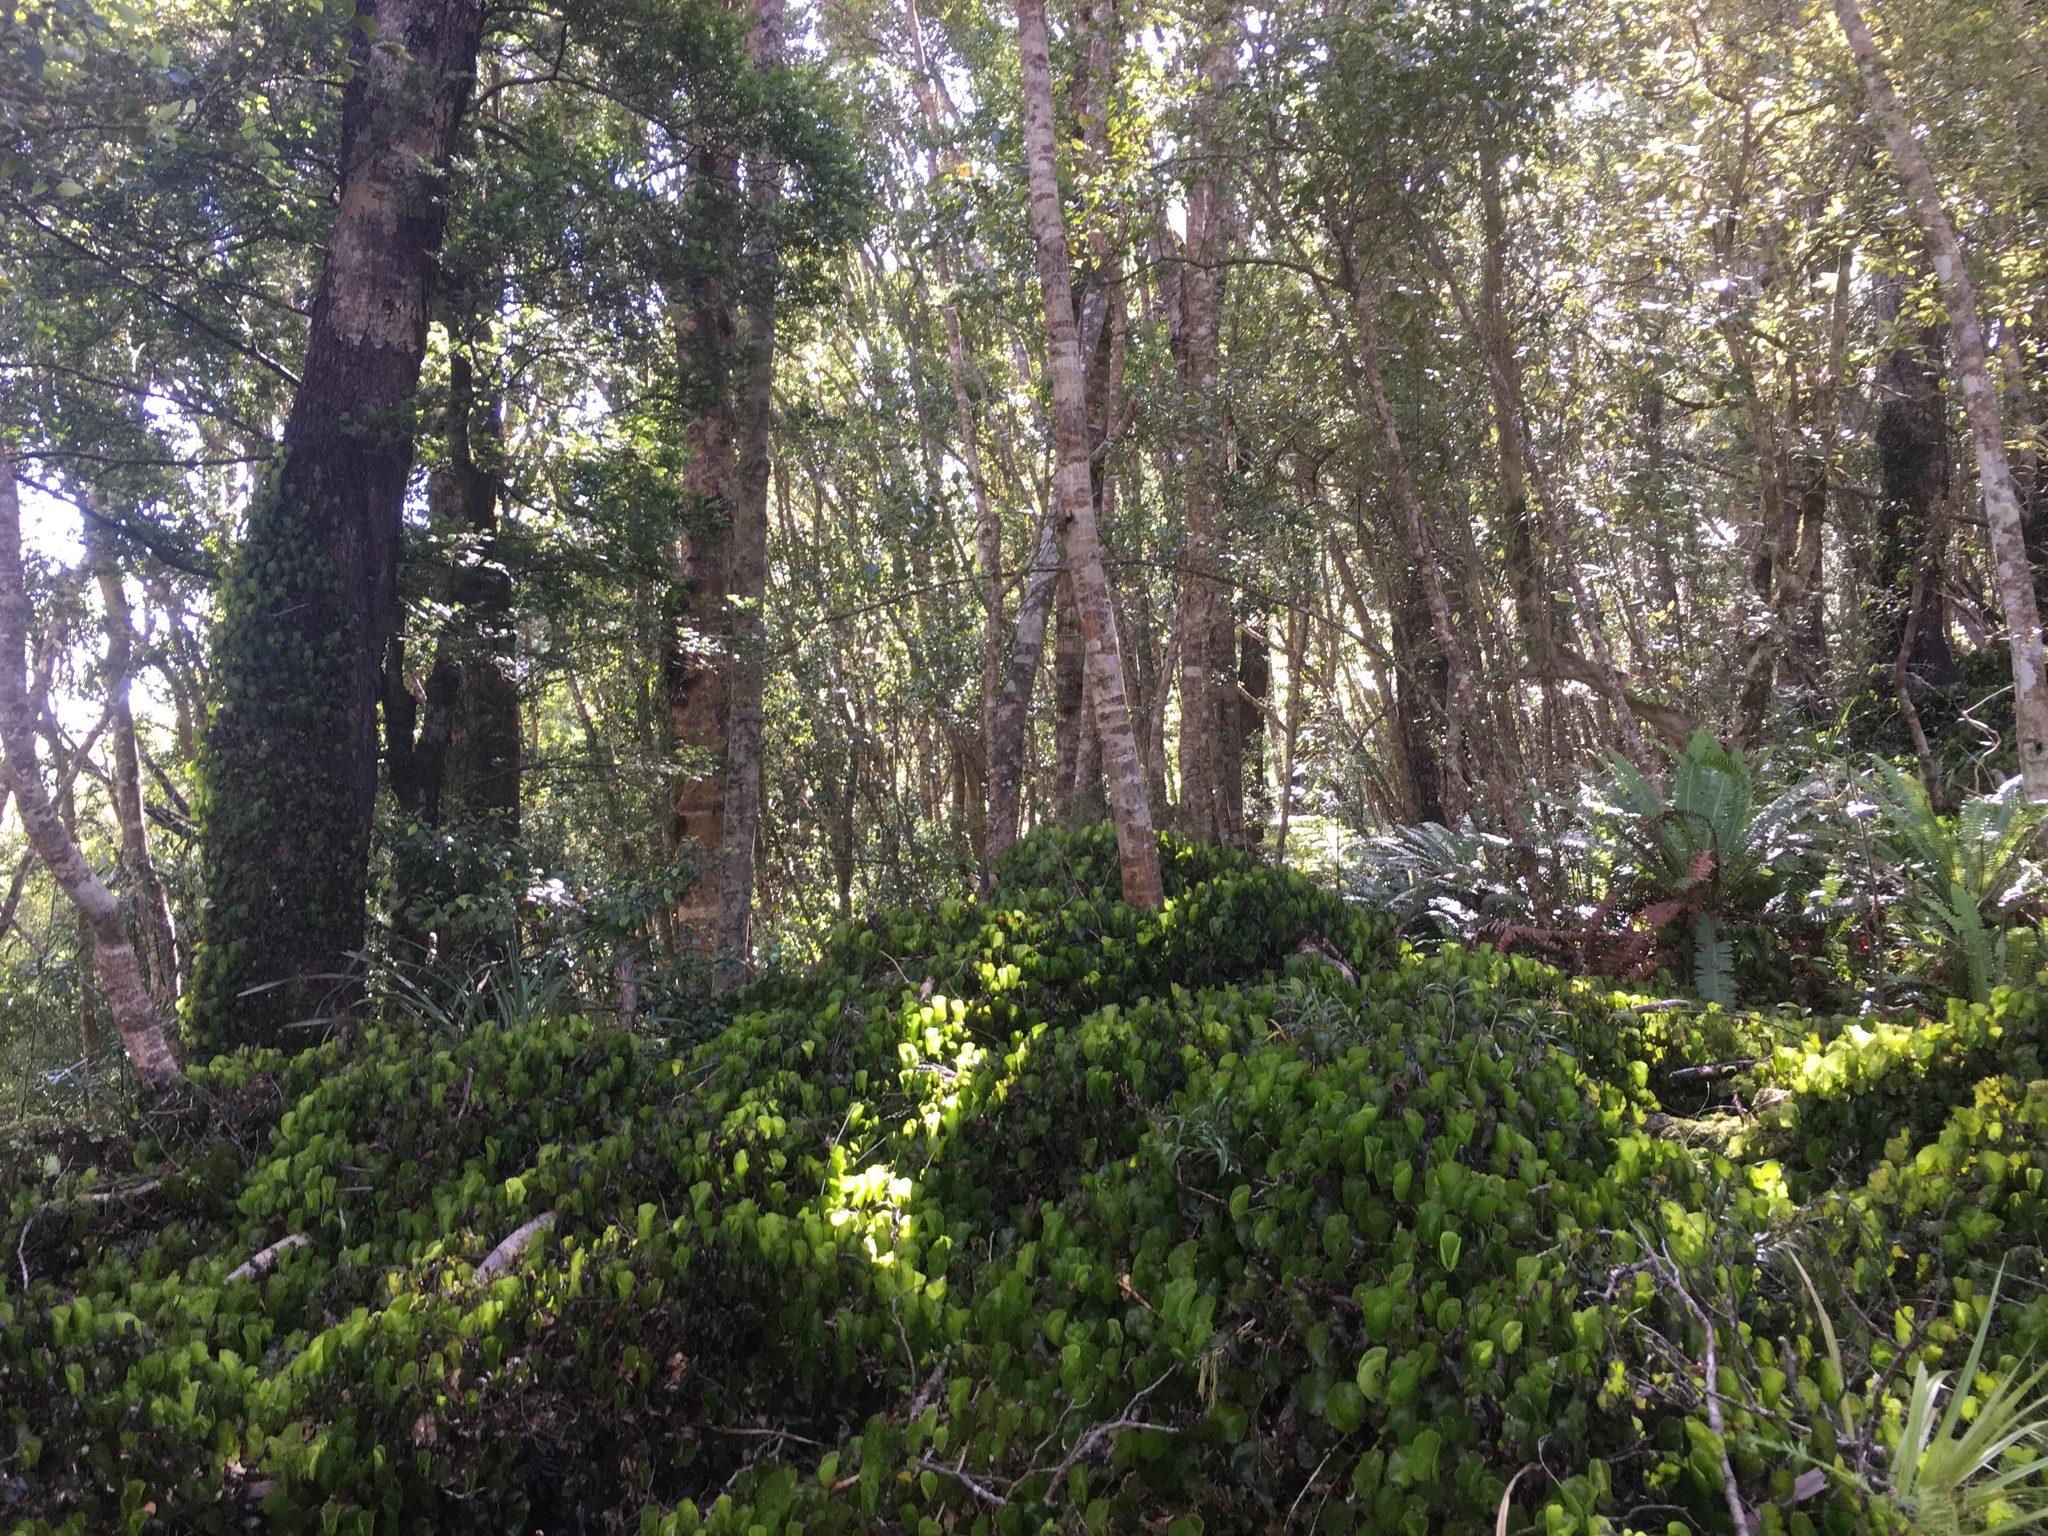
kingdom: Plantae
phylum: Tracheophyta
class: Polypodiopsida
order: Hymenophyllales
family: Hymenophyllaceae
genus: Hymenophyllum
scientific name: Hymenophyllum nephrophyllum
